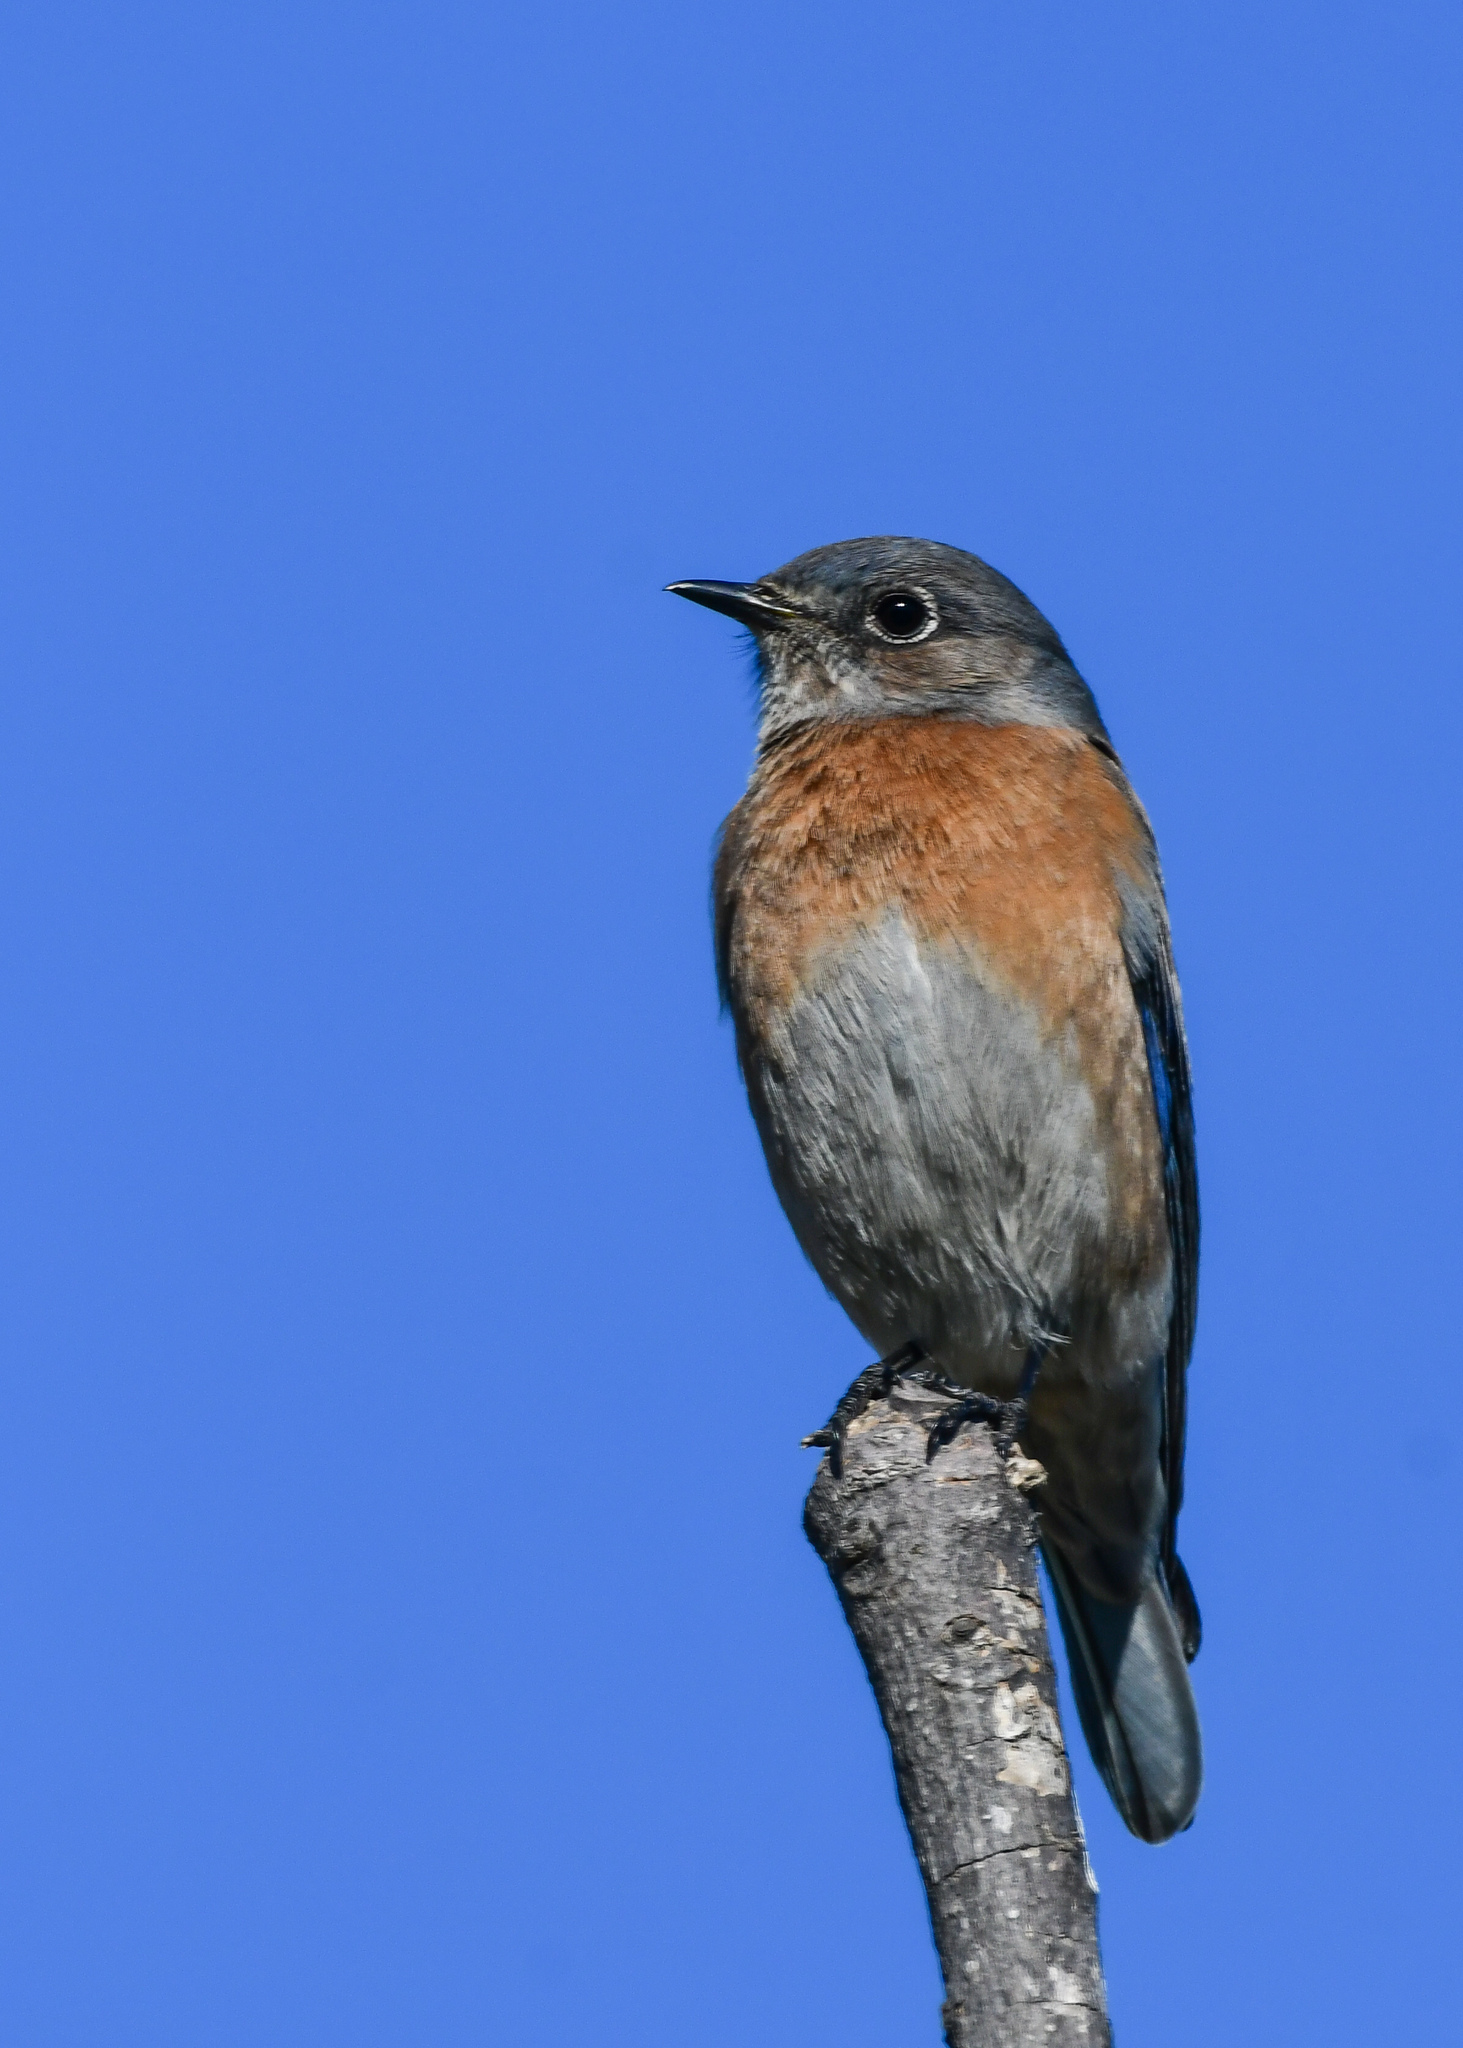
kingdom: Animalia
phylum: Chordata
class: Aves
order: Passeriformes
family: Turdidae
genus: Sialia
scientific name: Sialia mexicana
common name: Western bluebird
